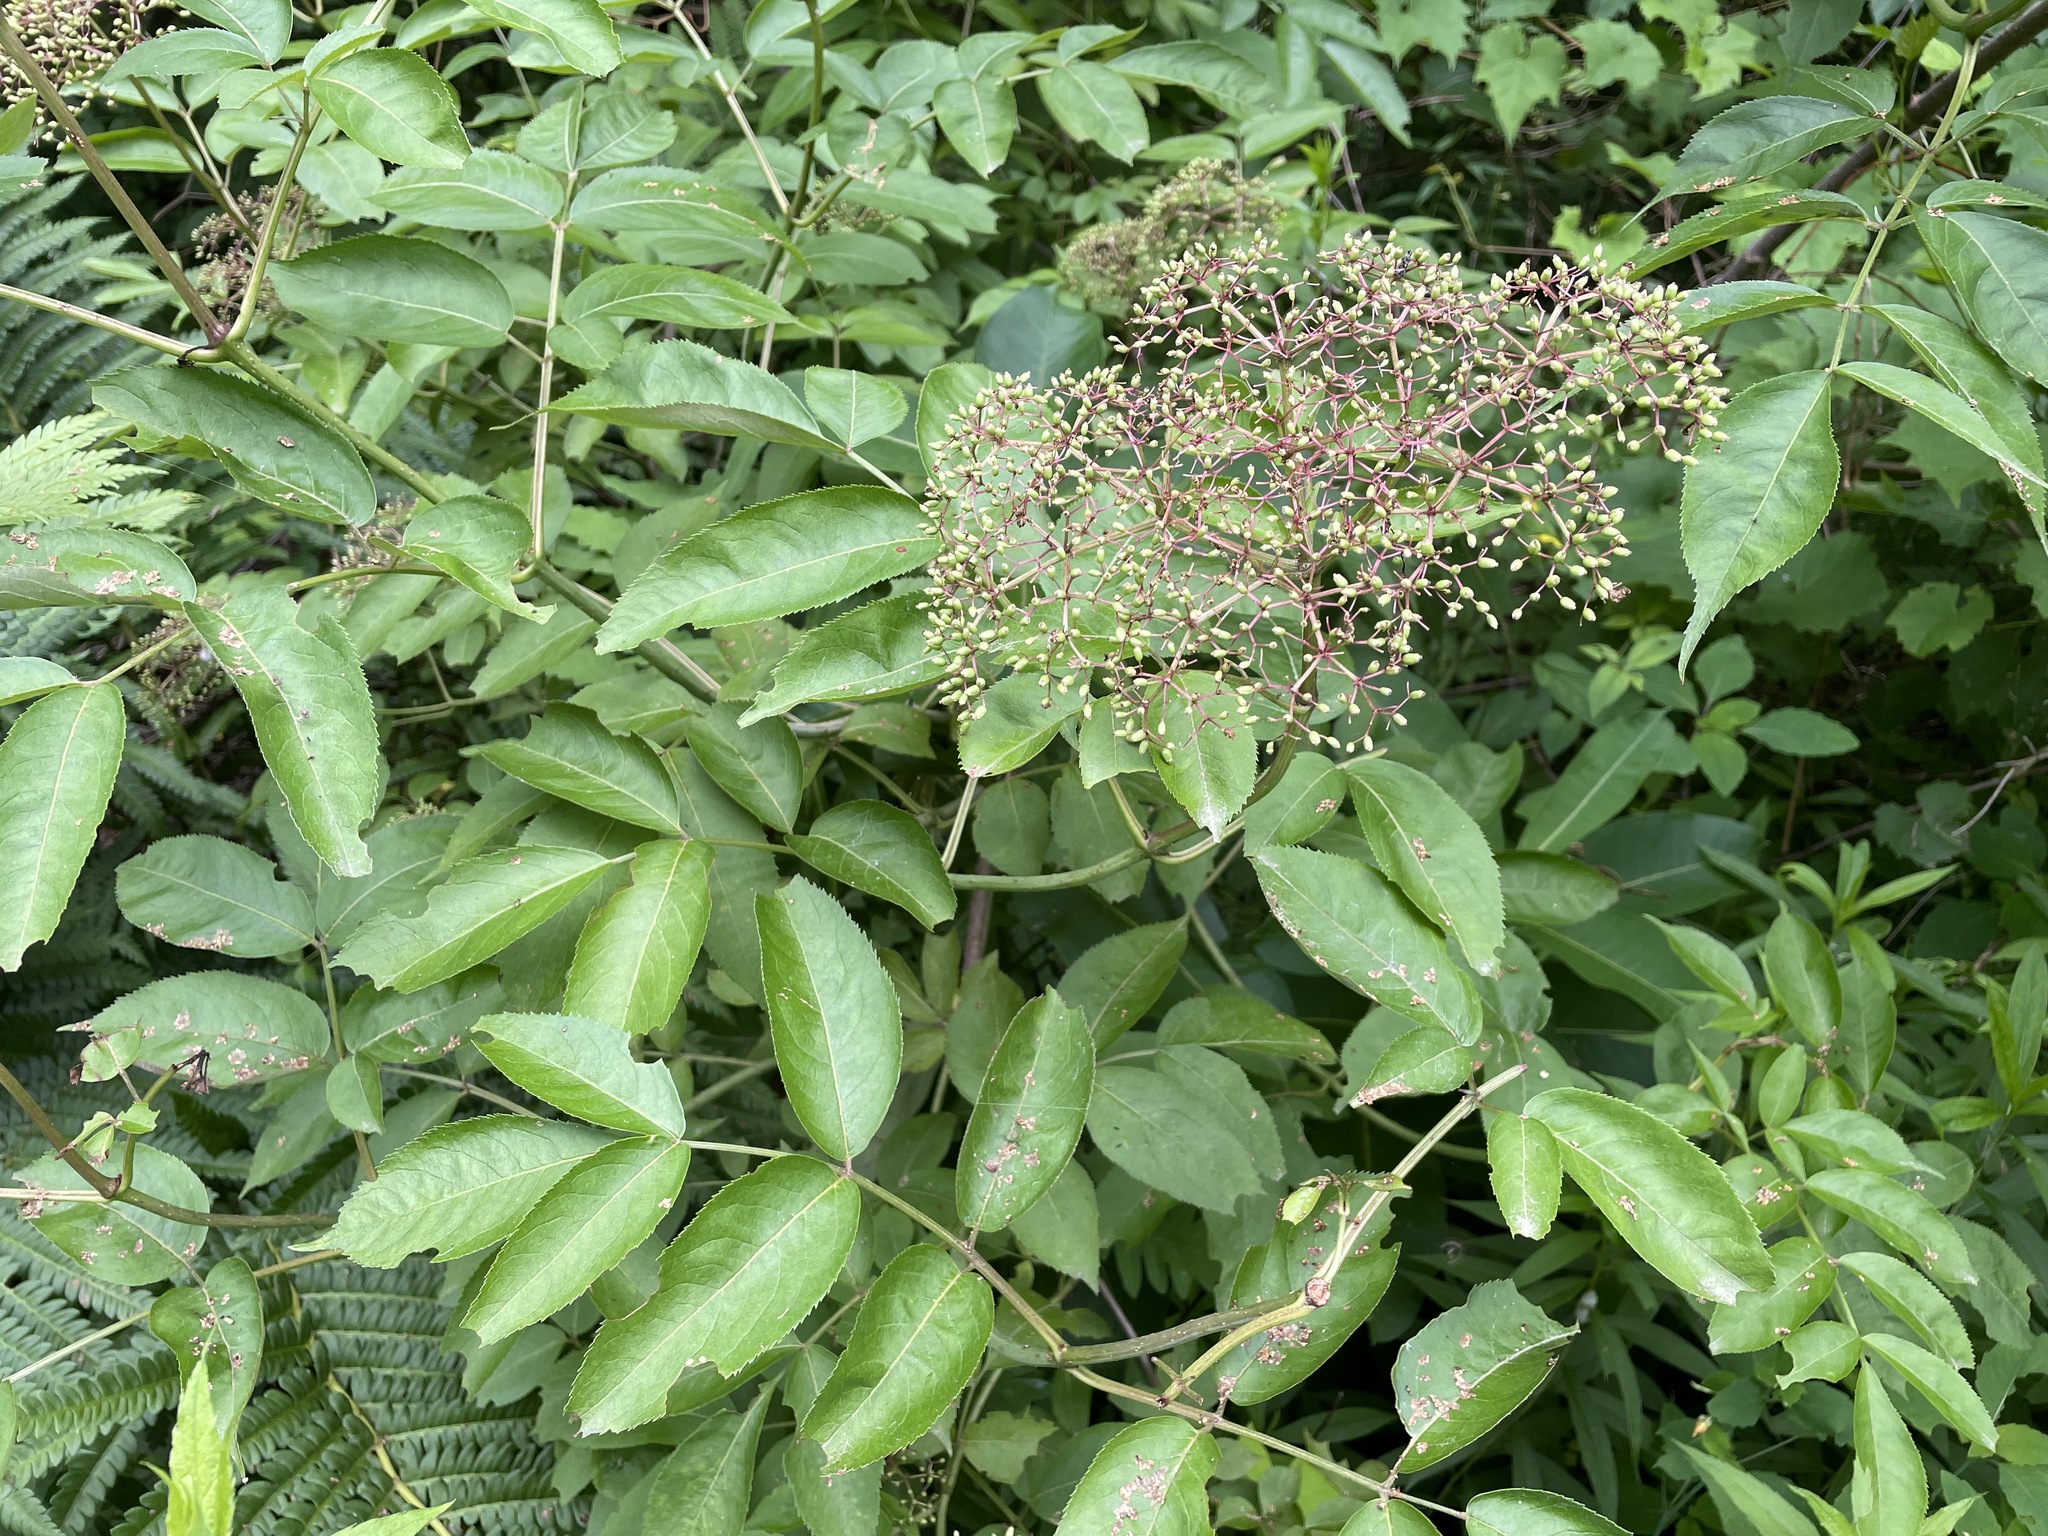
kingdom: Plantae
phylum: Tracheophyta
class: Magnoliopsida
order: Dipsacales
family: Viburnaceae
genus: Sambucus
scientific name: Sambucus canadensis
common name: American elder
